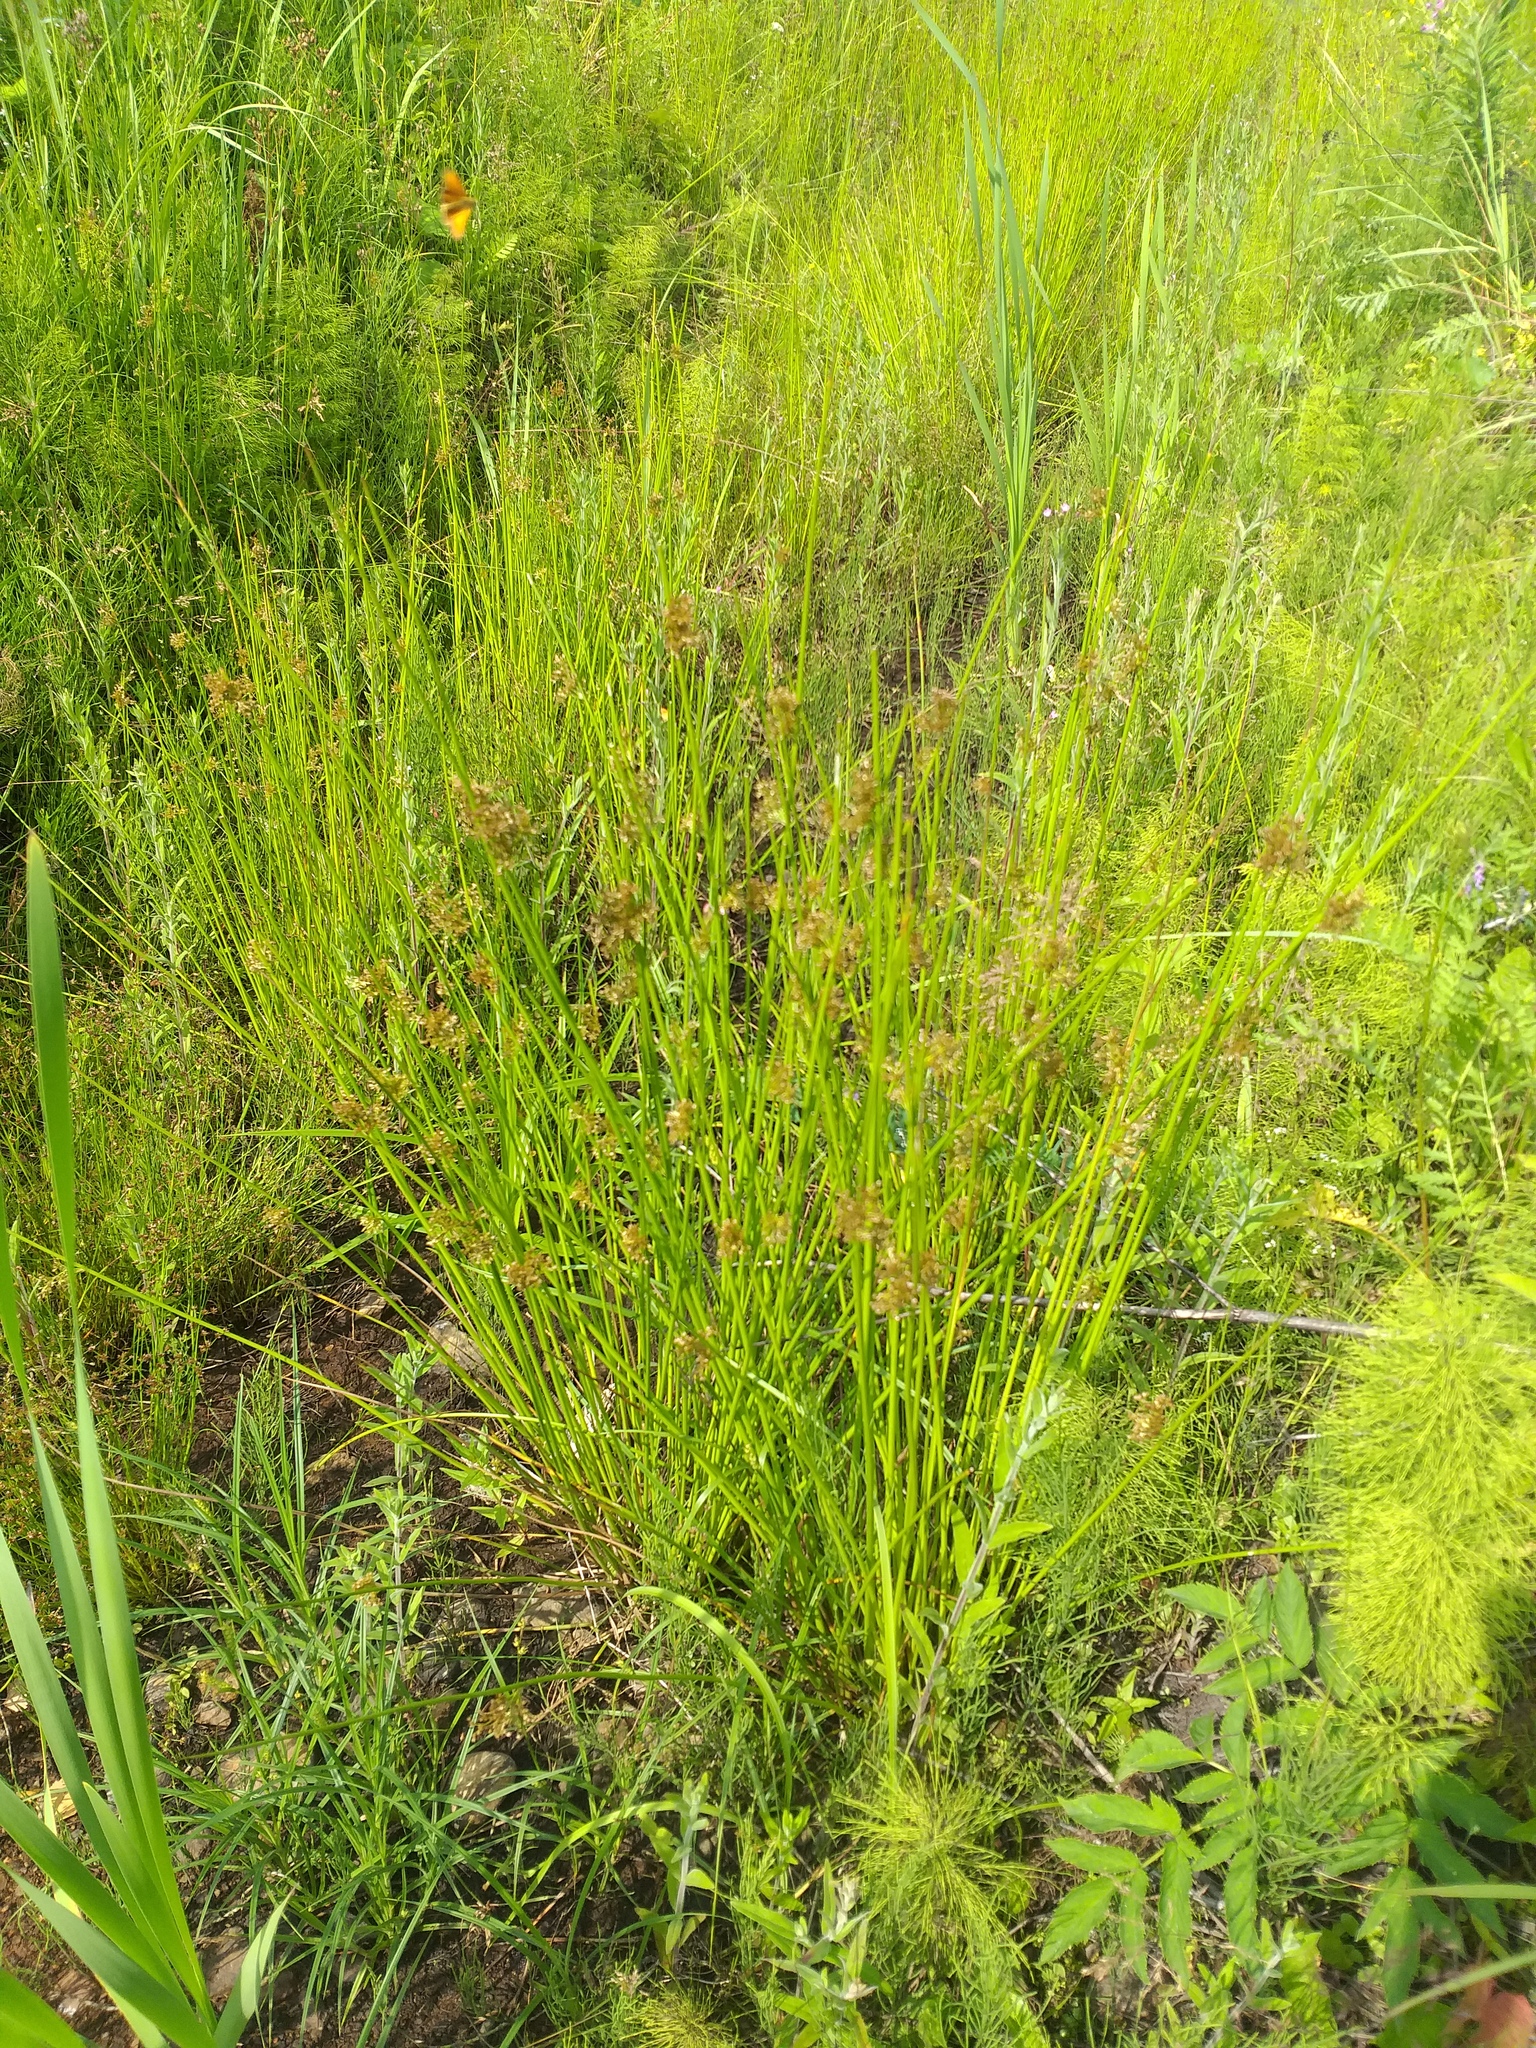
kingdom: Plantae
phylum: Tracheophyta
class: Liliopsida
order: Poales
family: Juncaceae
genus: Juncus
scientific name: Juncus effusus
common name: Soft rush
